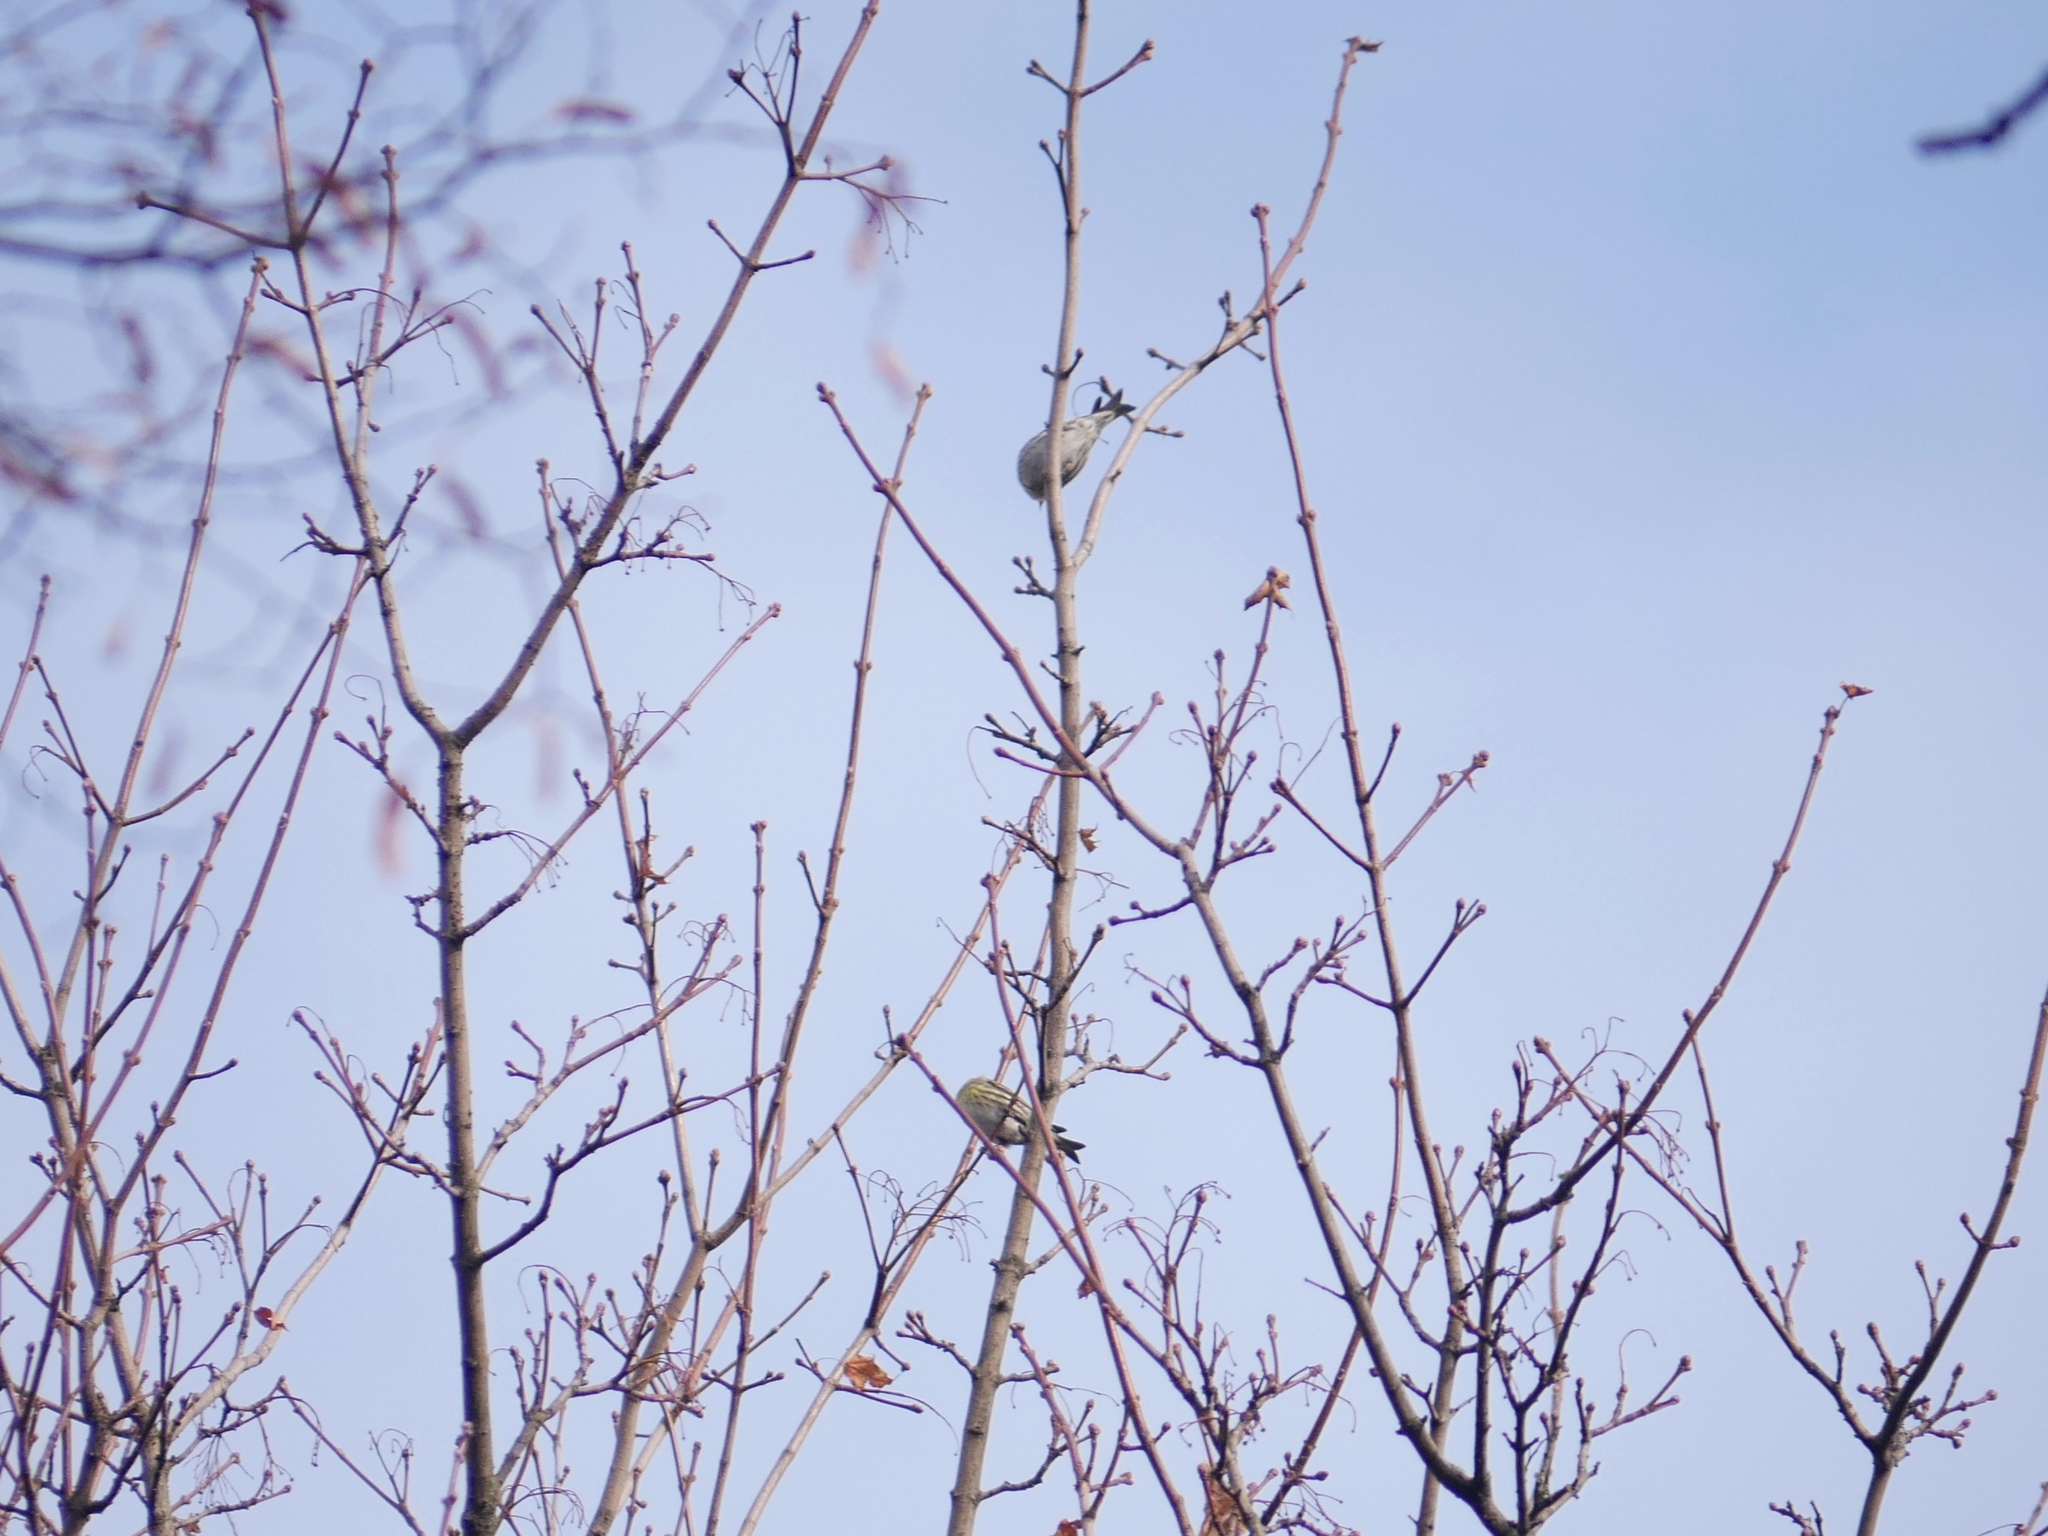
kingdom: Animalia
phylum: Chordata
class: Aves
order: Passeriformes
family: Fringillidae
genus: Spinus
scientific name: Spinus spinus
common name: Eurasian siskin
